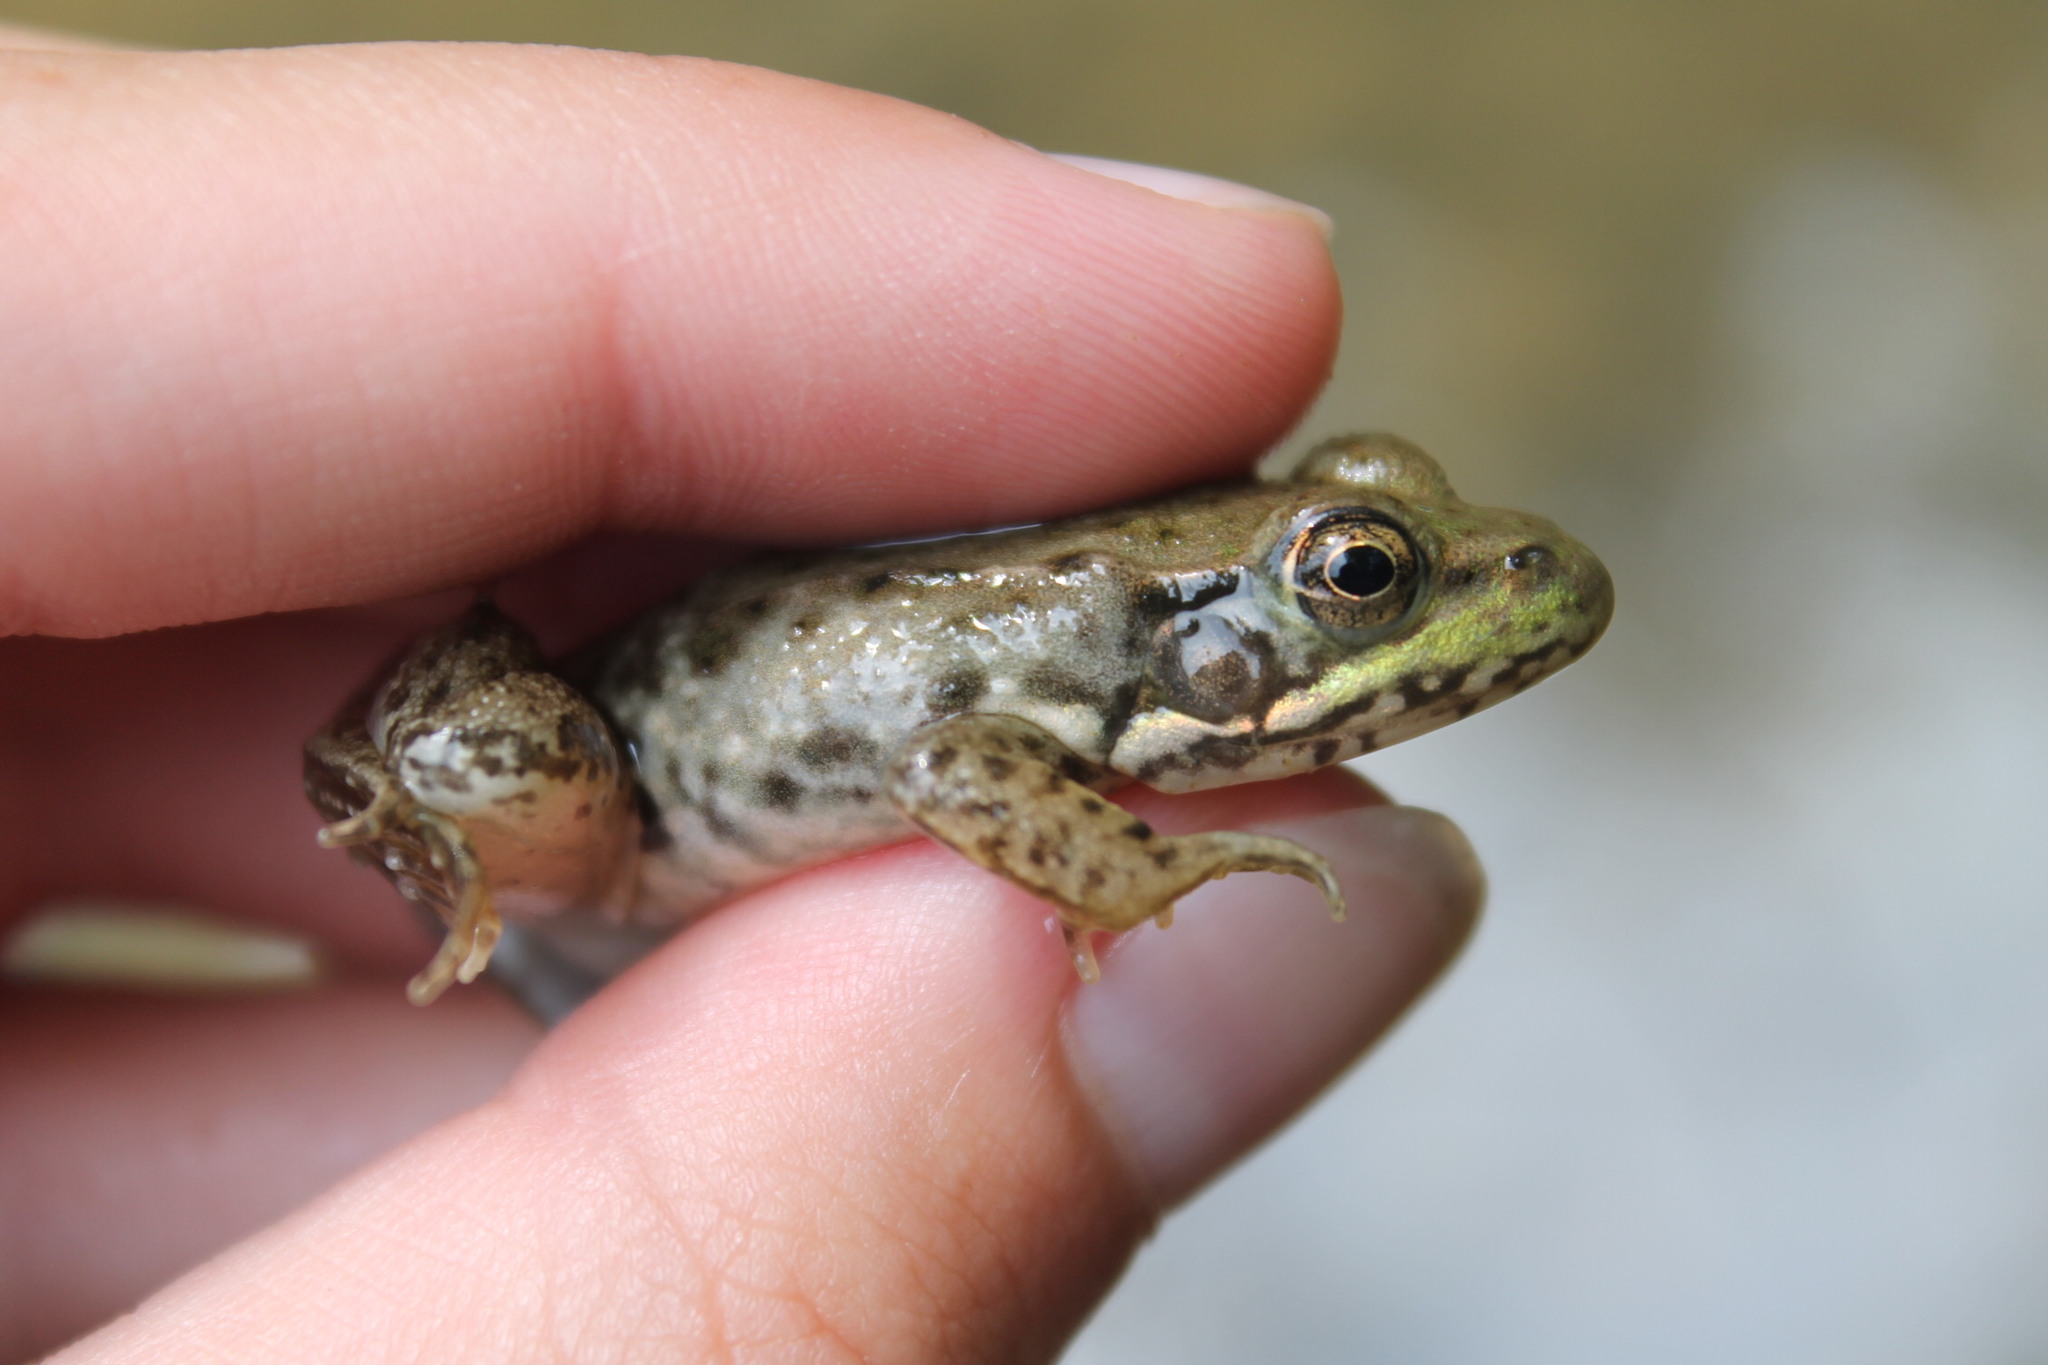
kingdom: Animalia
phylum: Chordata
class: Amphibia
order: Anura
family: Ranidae
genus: Lithobates
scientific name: Lithobates clamitans
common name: Green frog
